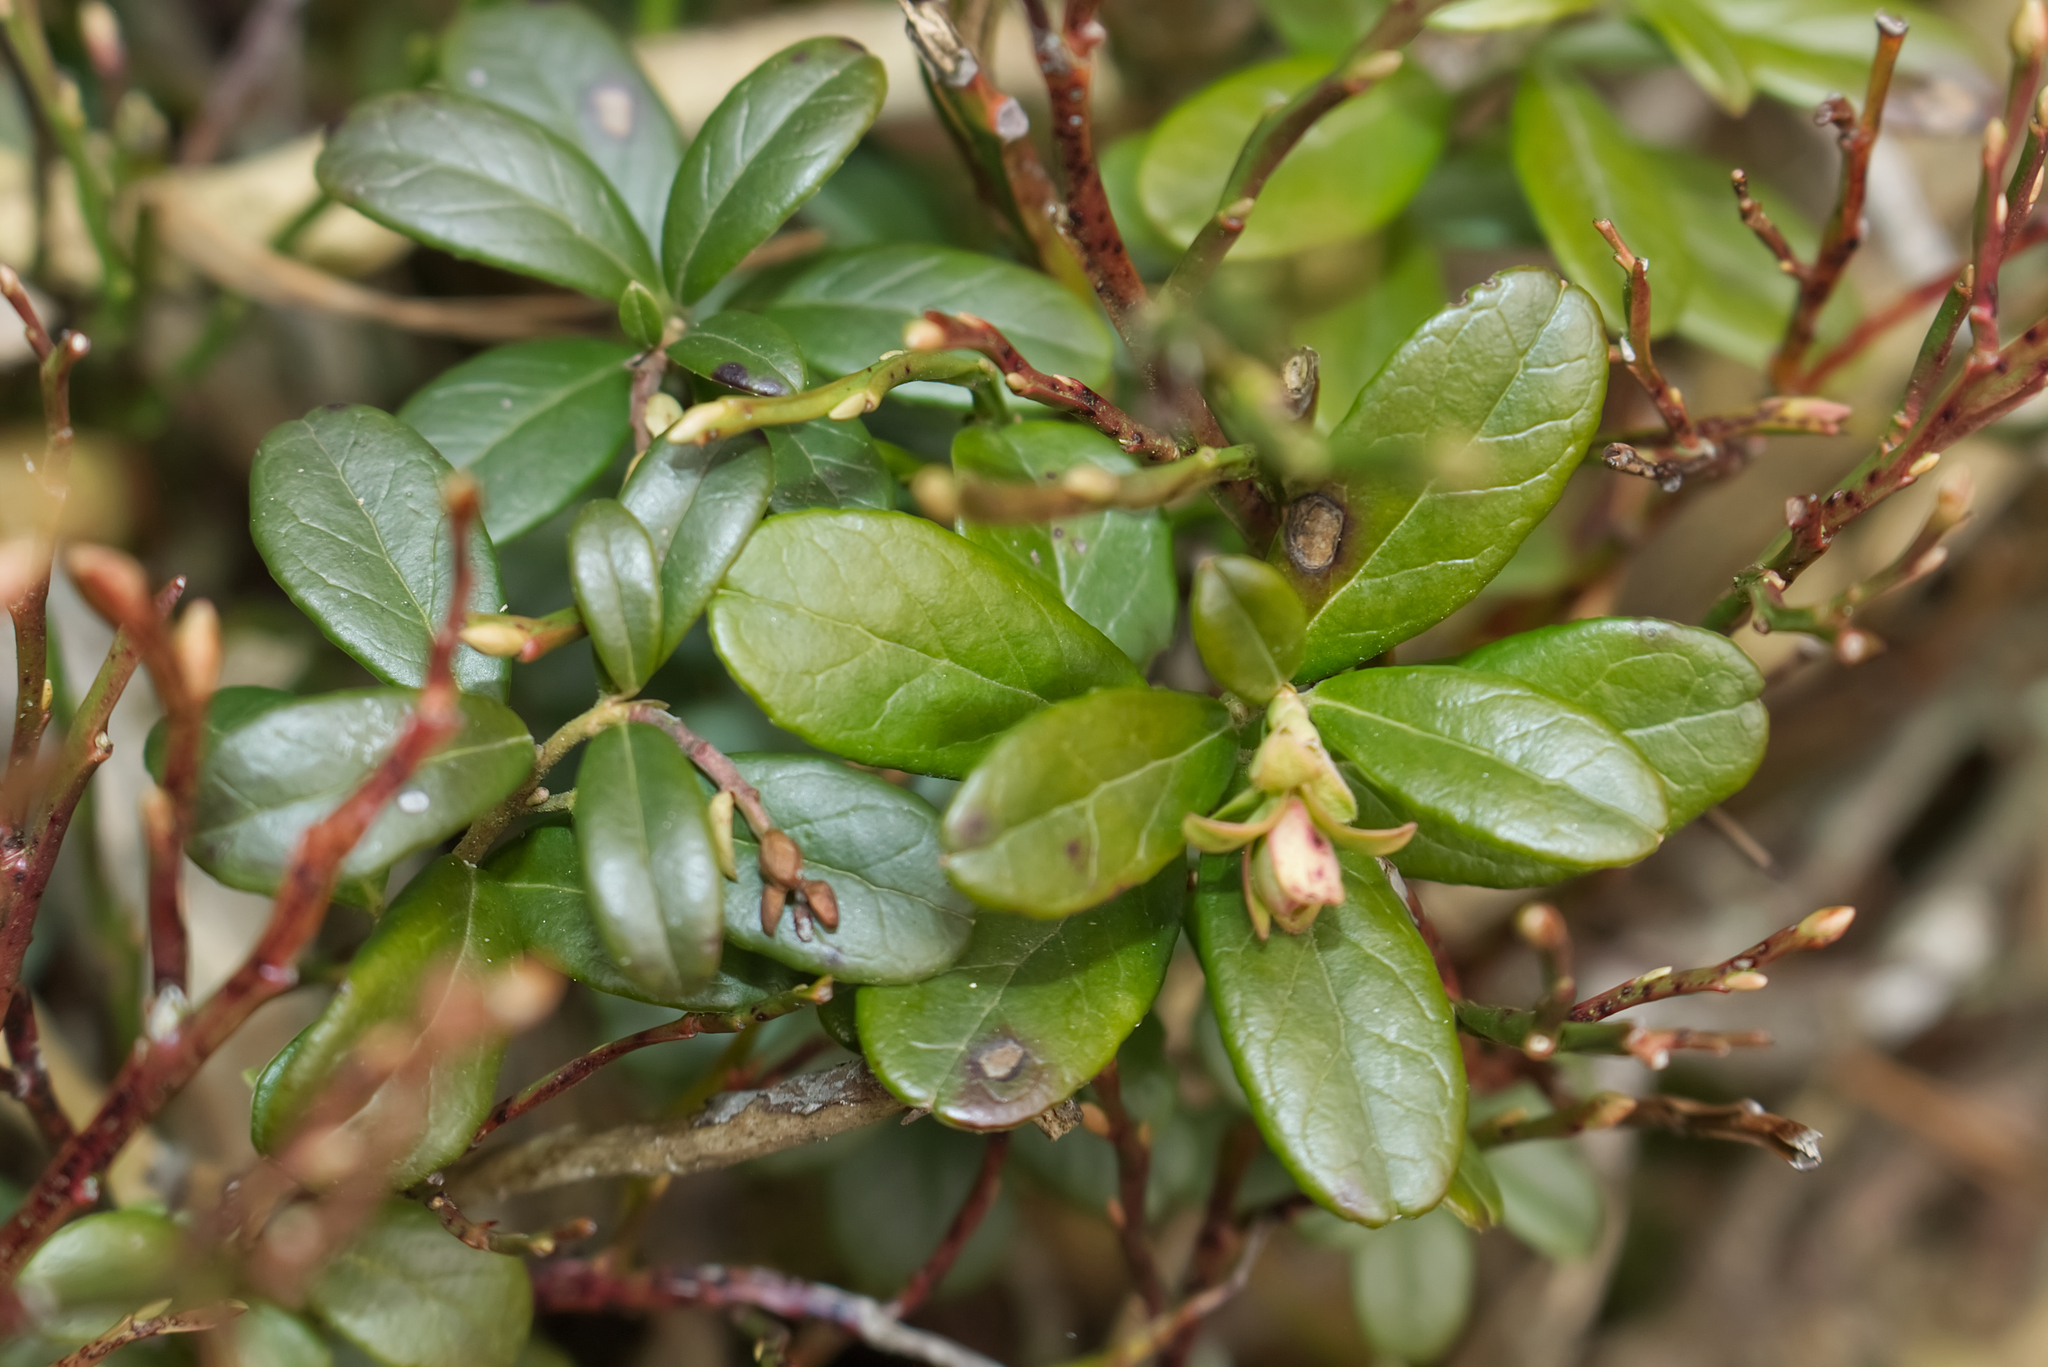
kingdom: Plantae
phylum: Tracheophyta
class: Magnoliopsida
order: Ericales
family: Ericaceae
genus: Vaccinium
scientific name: Vaccinium vitis-idaea
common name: Cowberry
